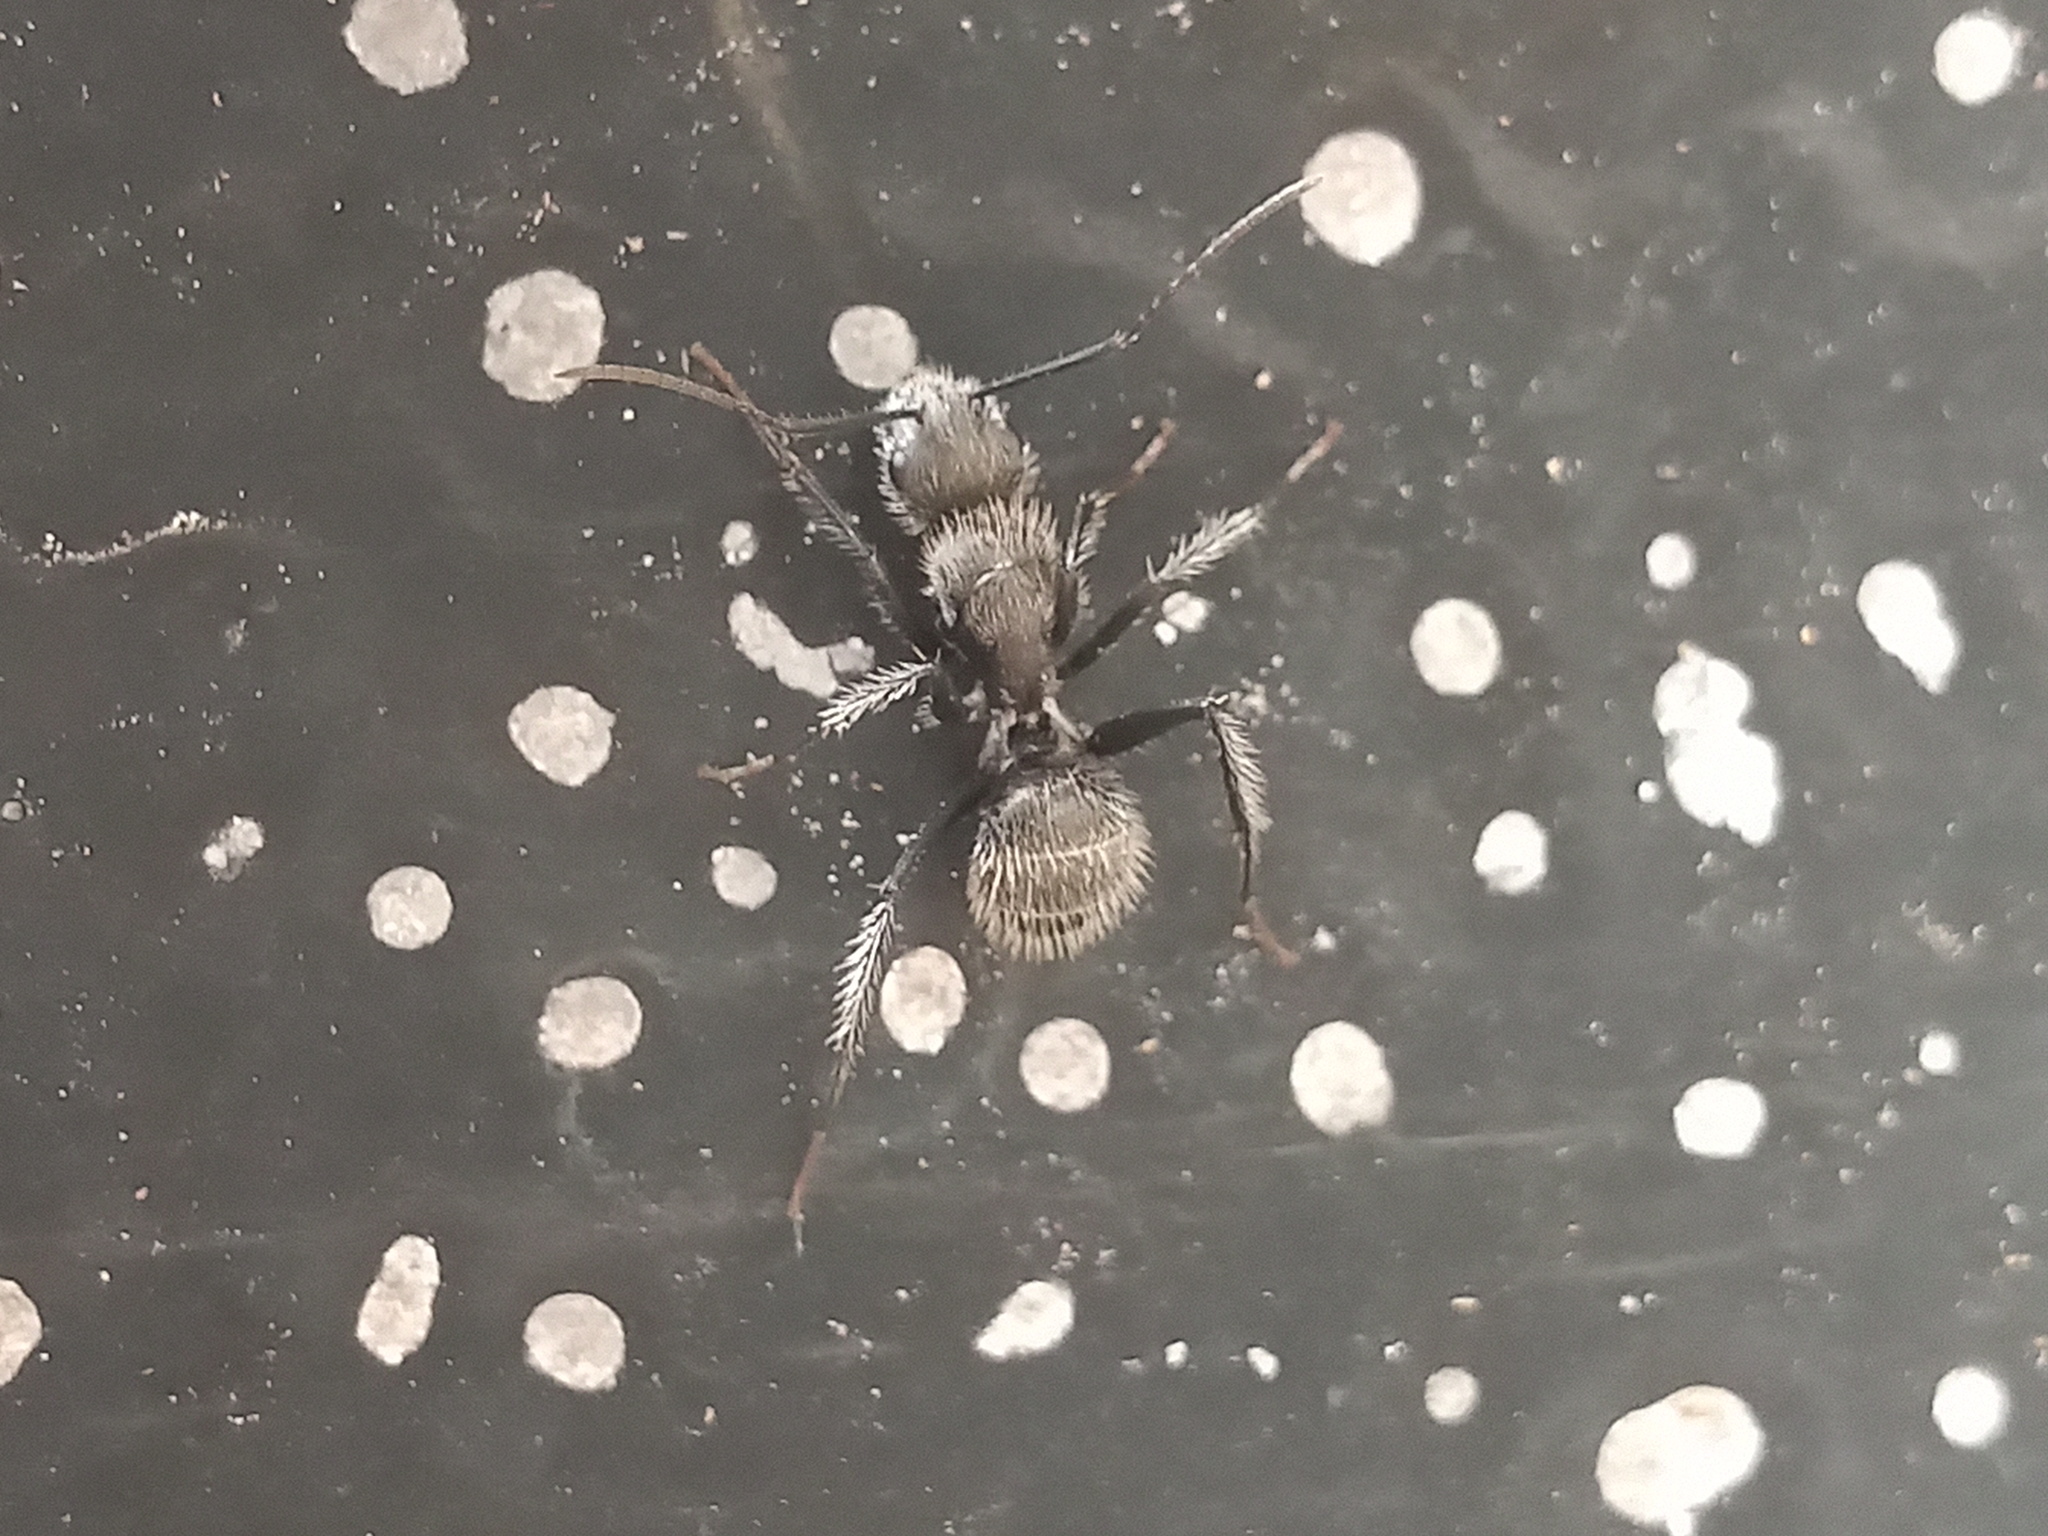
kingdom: Animalia
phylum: Arthropoda
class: Insecta
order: Hymenoptera
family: Formicidae
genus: Camponotus
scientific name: Camponotus senex
